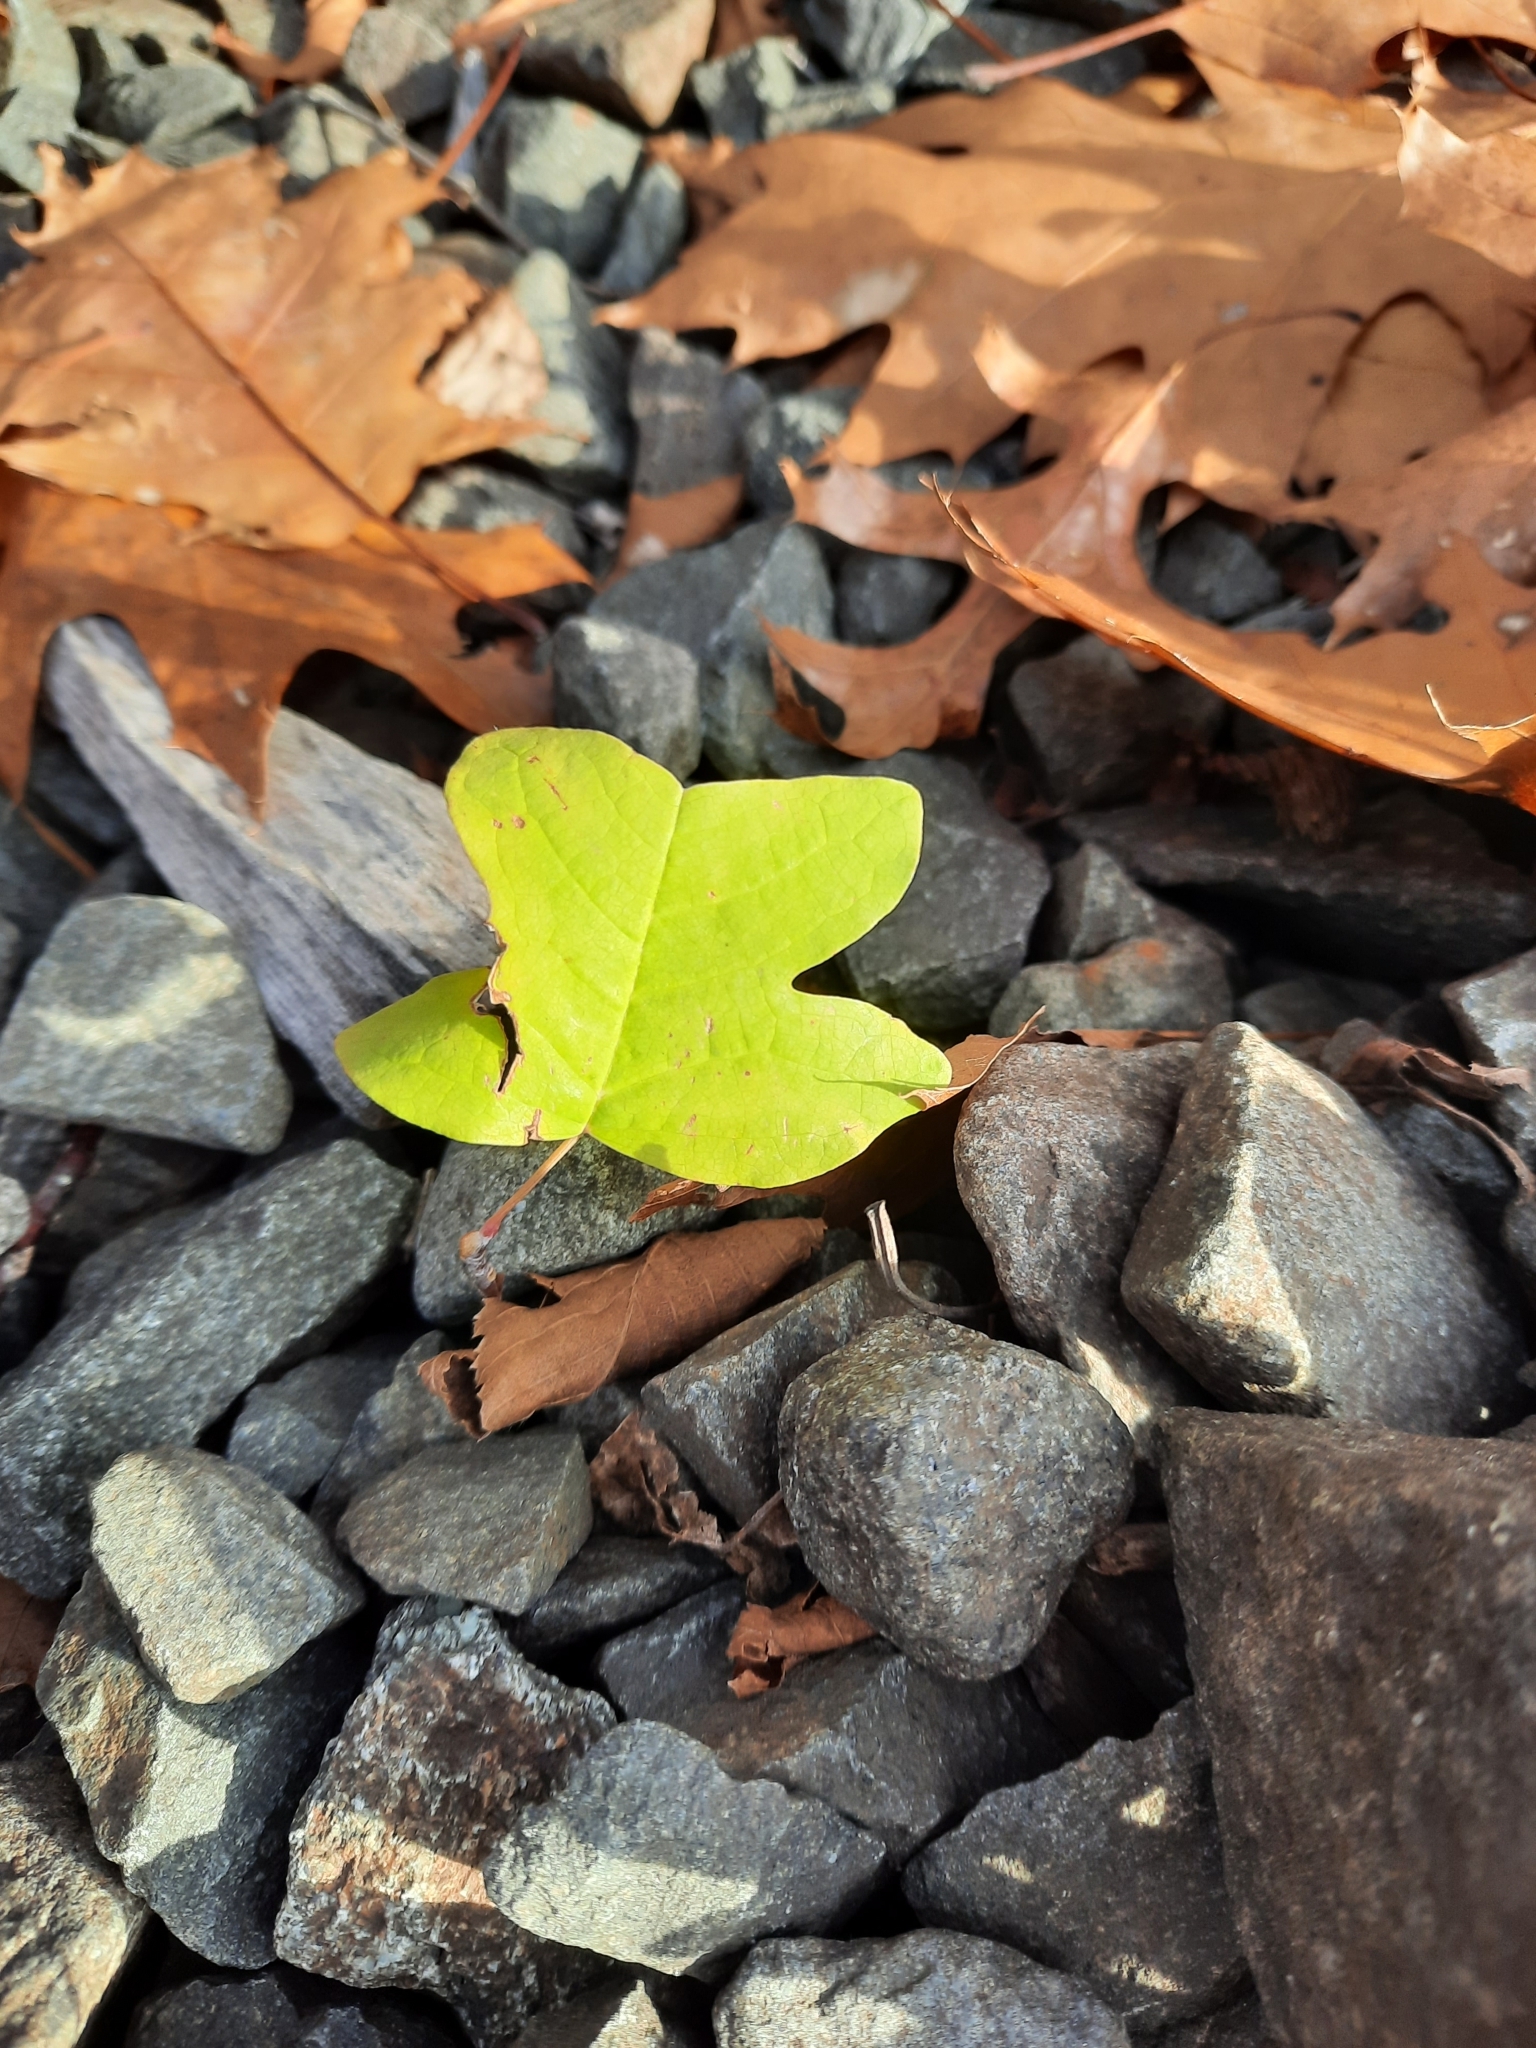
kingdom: Plantae
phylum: Tracheophyta
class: Magnoliopsida
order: Magnoliales
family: Magnoliaceae
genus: Liriodendron
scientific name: Liriodendron tulipifera
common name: Tulip tree
